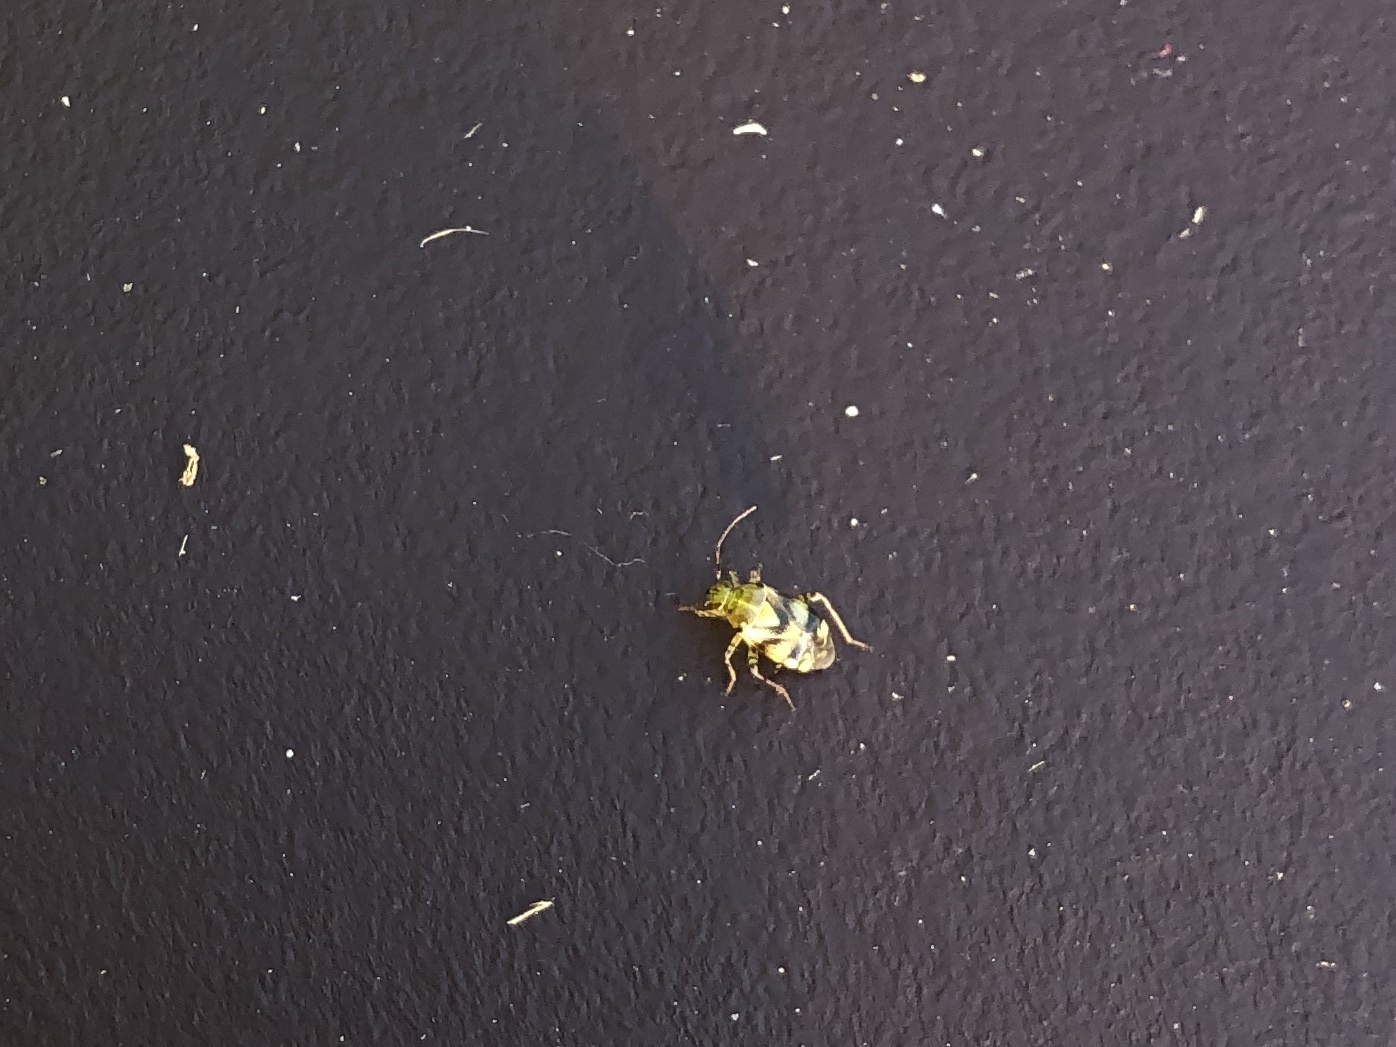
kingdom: Animalia
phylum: Arthropoda
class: Insecta
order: Hemiptera
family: Miridae
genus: Liocoris
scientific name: Liocoris tripustulatus
